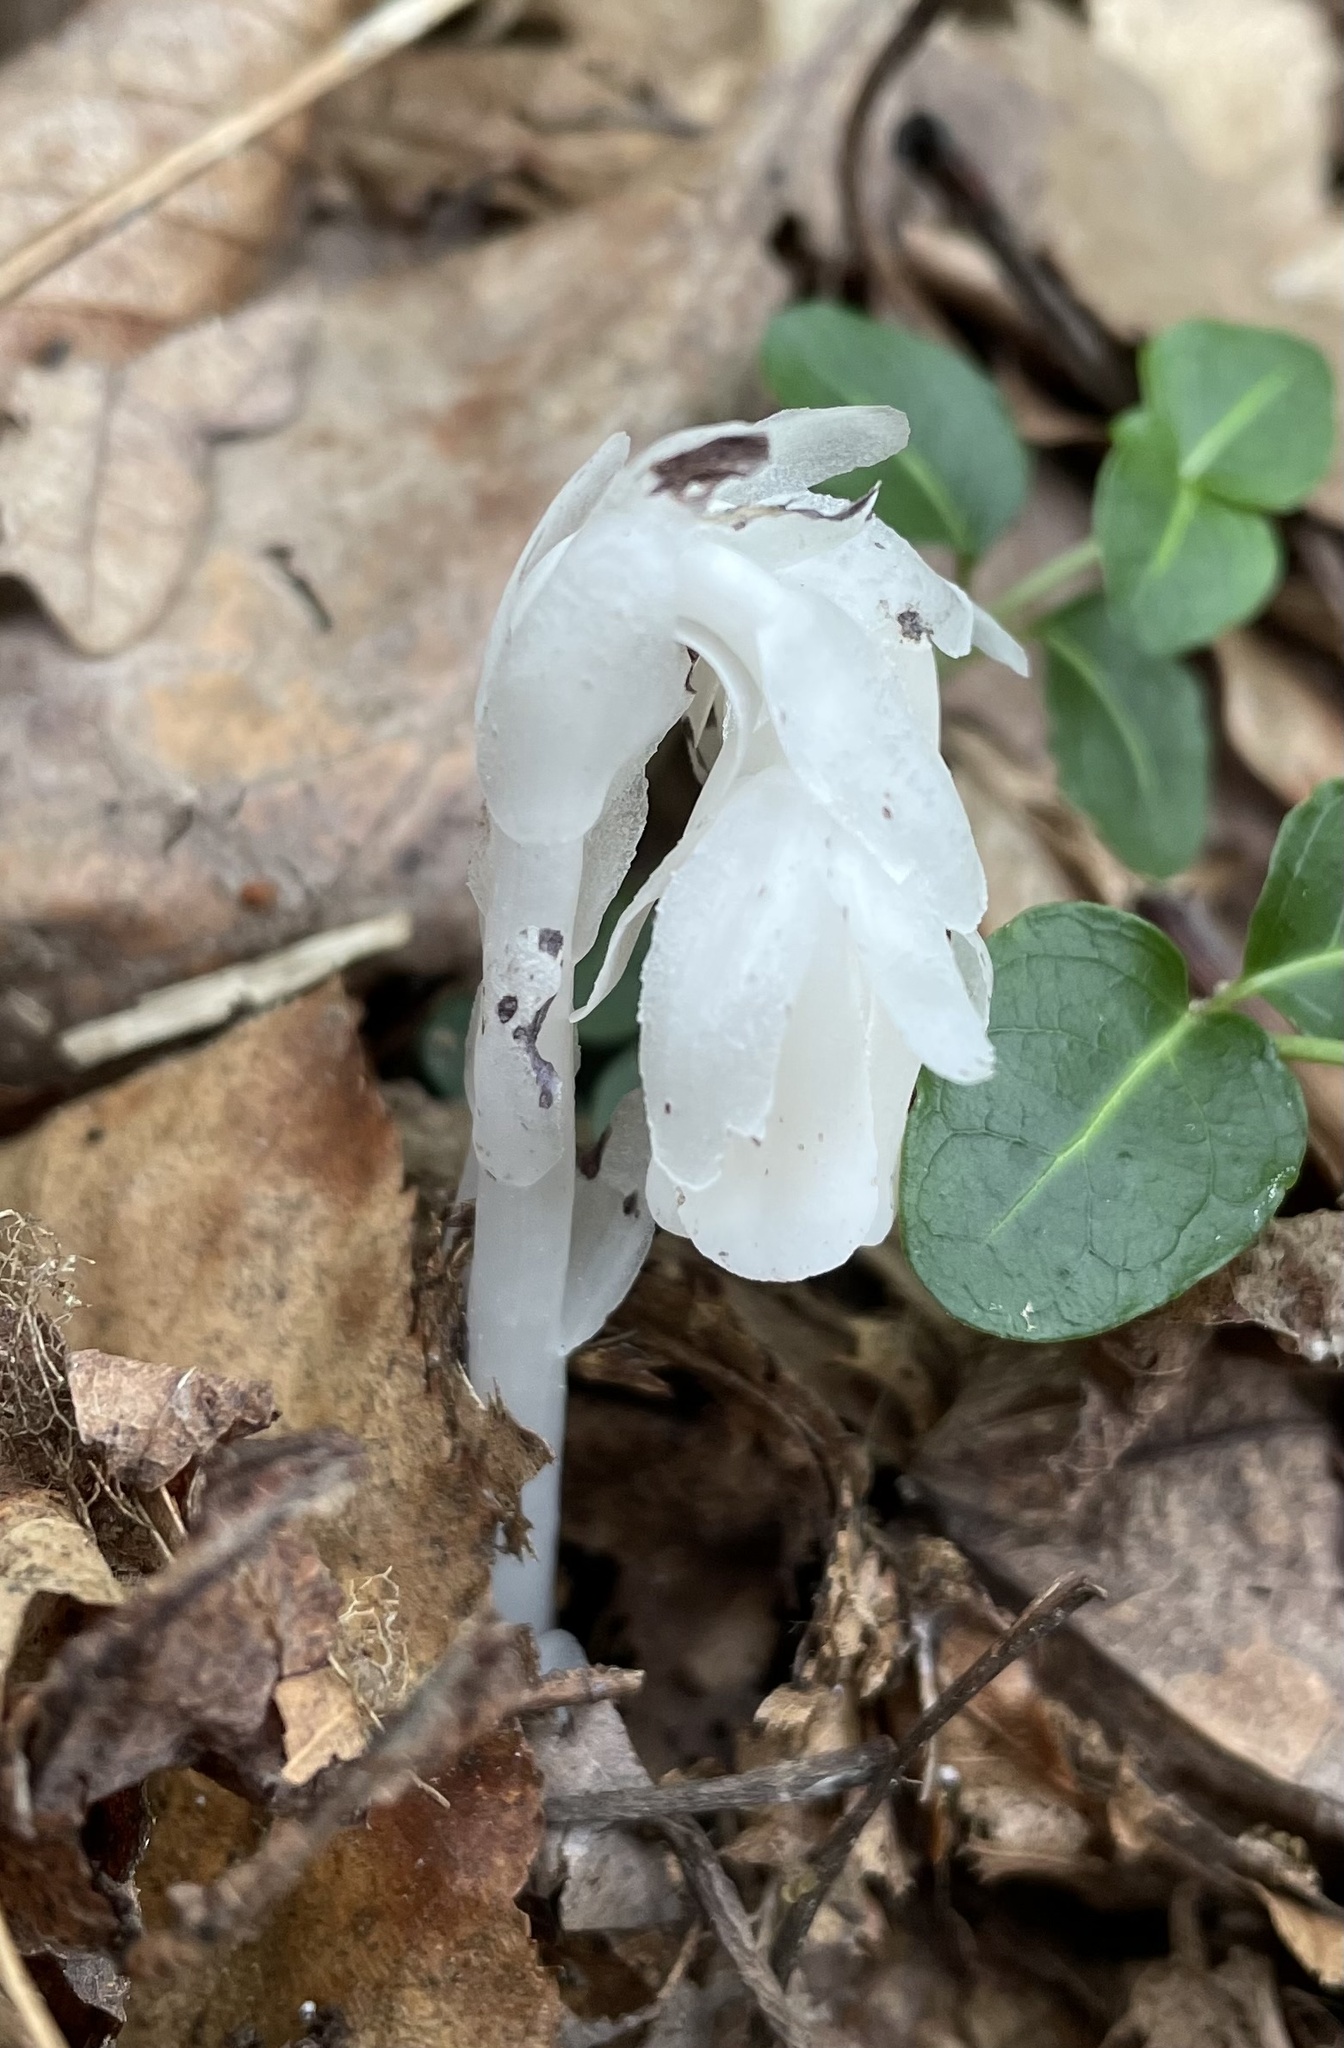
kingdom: Plantae
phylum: Tracheophyta
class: Magnoliopsida
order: Ericales
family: Ericaceae
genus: Monotropa
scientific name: Monotropa uniflora
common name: Convulsion root
